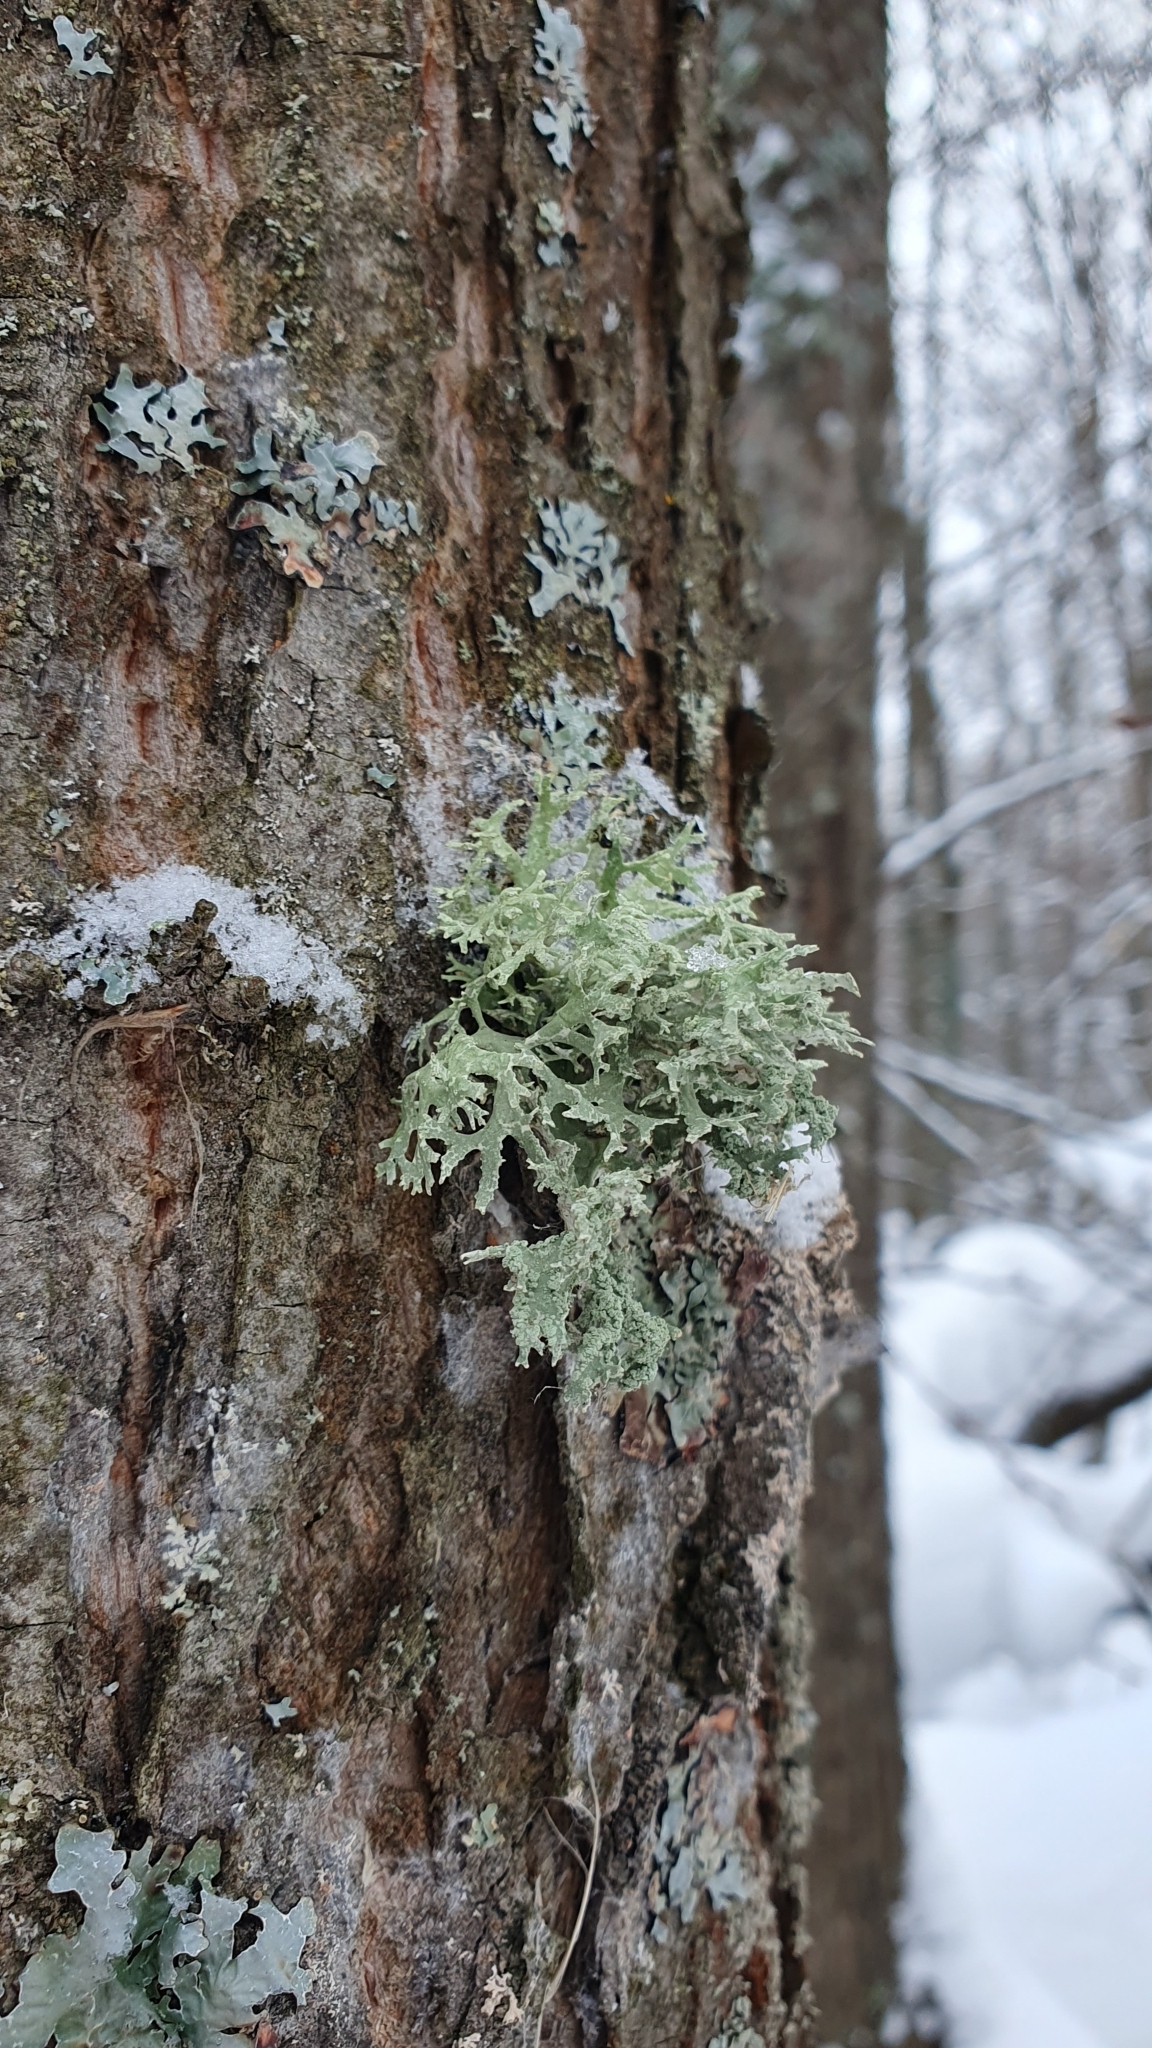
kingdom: Fungi
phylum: Ascomycota
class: Lecanoromycetes
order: Lecanorales
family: Parmeliaceae
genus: Evernia
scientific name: Evernia prunastri
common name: Oak moss
